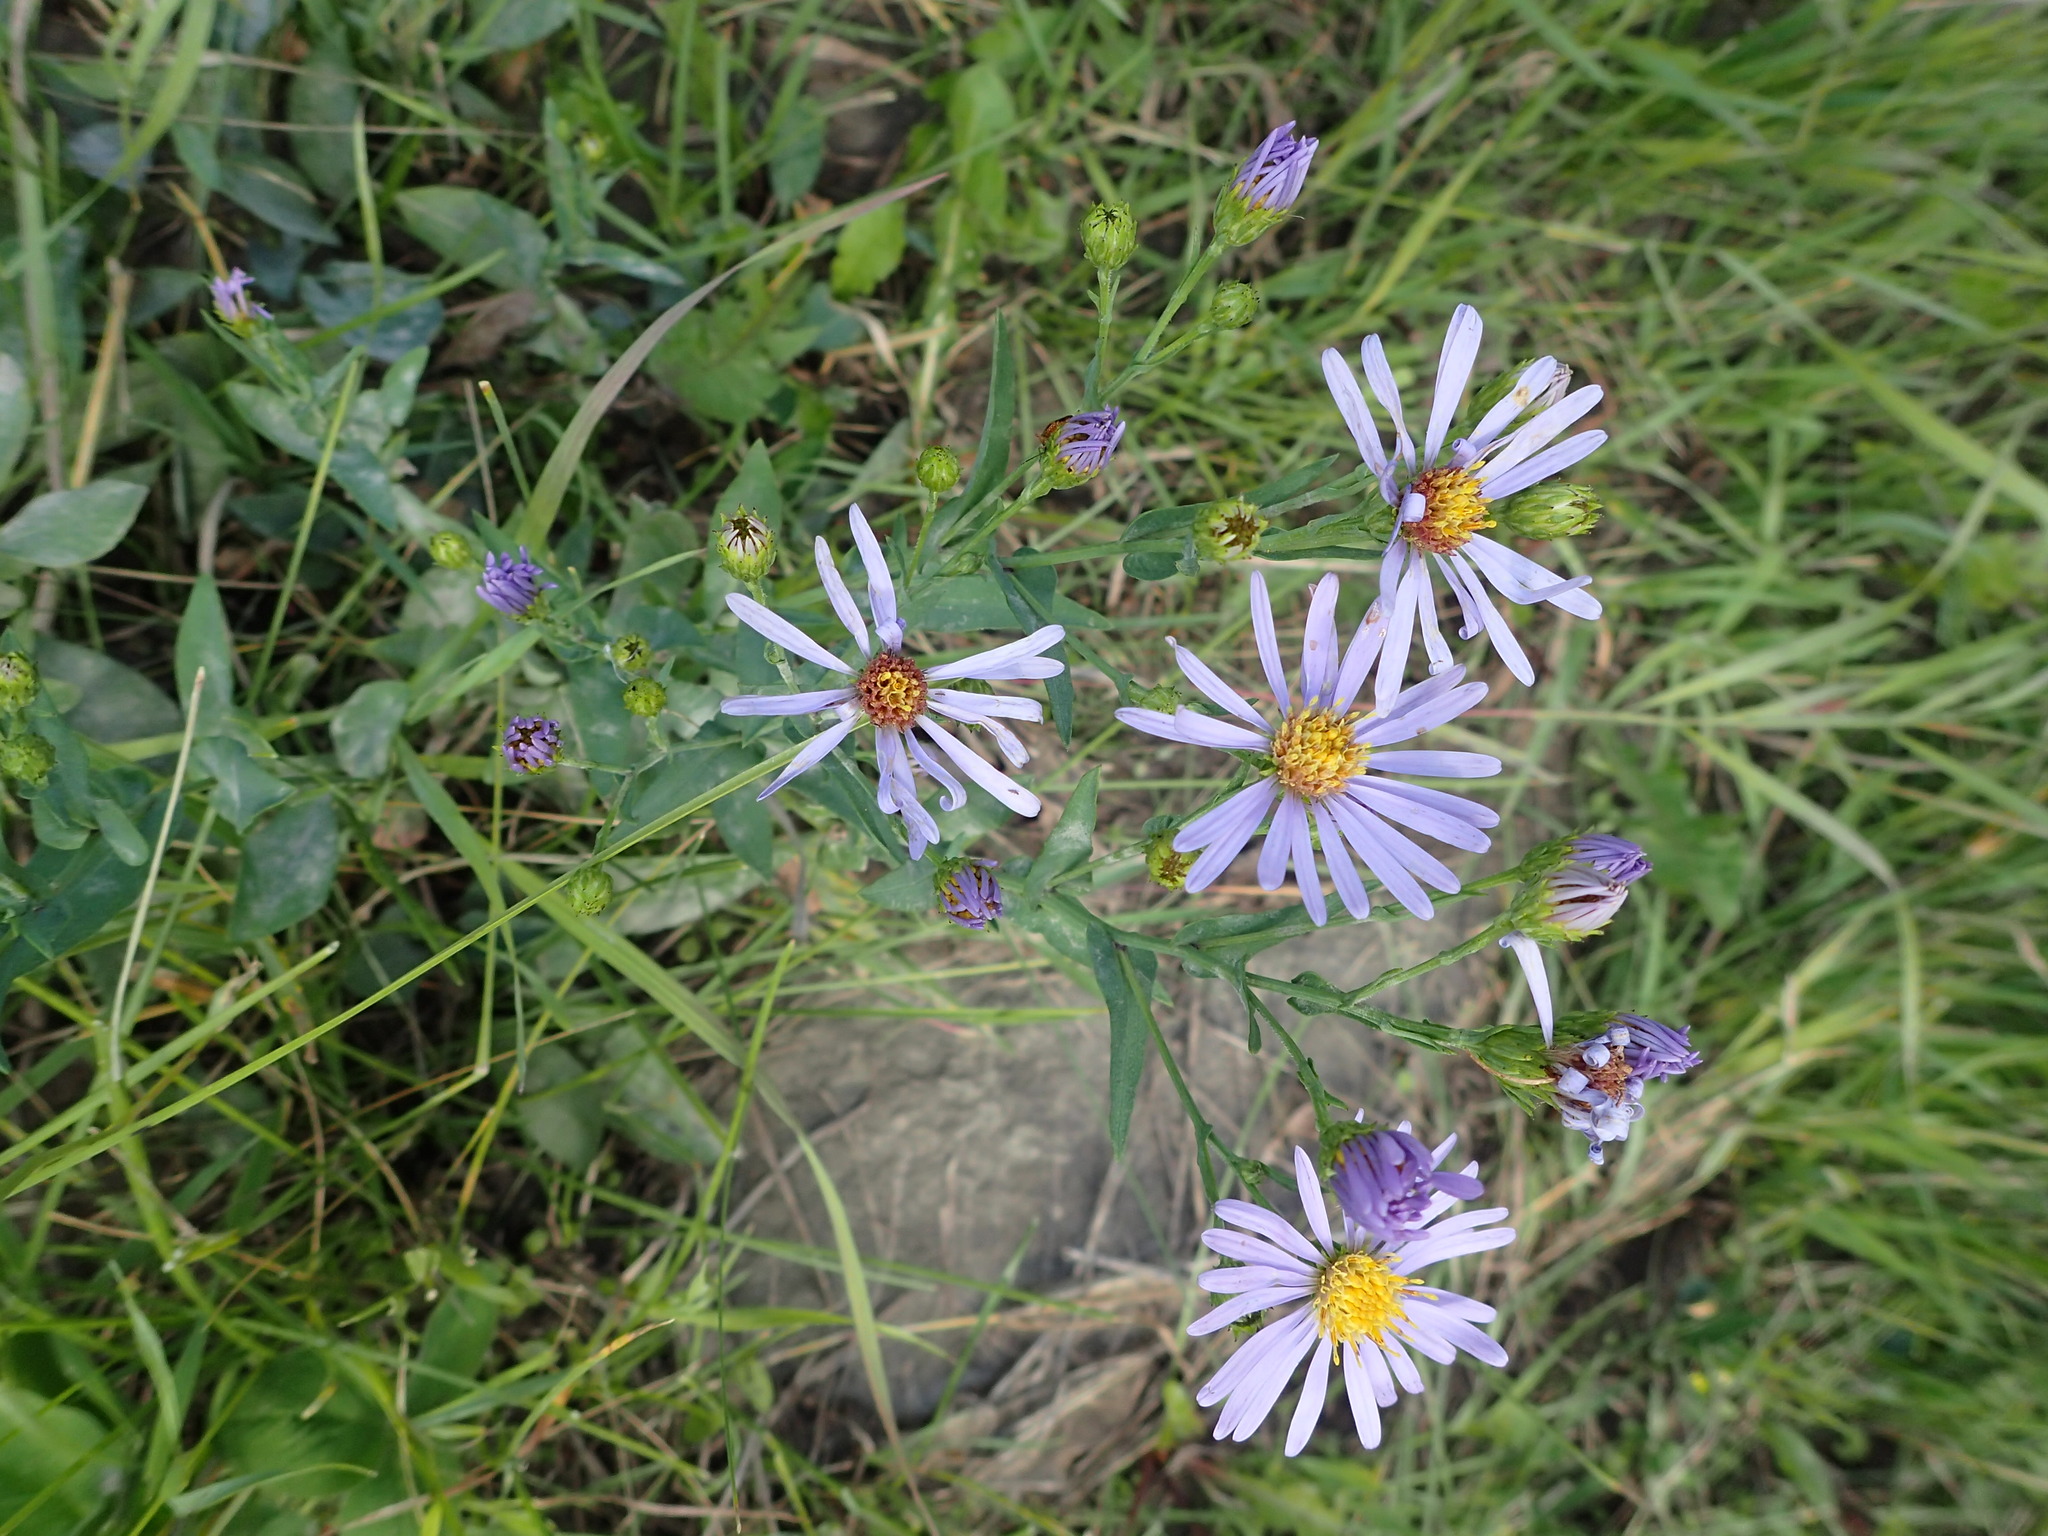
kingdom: Plantae
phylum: Tracheophyta
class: Magnoliopsida
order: Asterales
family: Asteraceae
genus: Symphyotrichum
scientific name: Symphyotrichum laeve
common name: Glaucous aster
